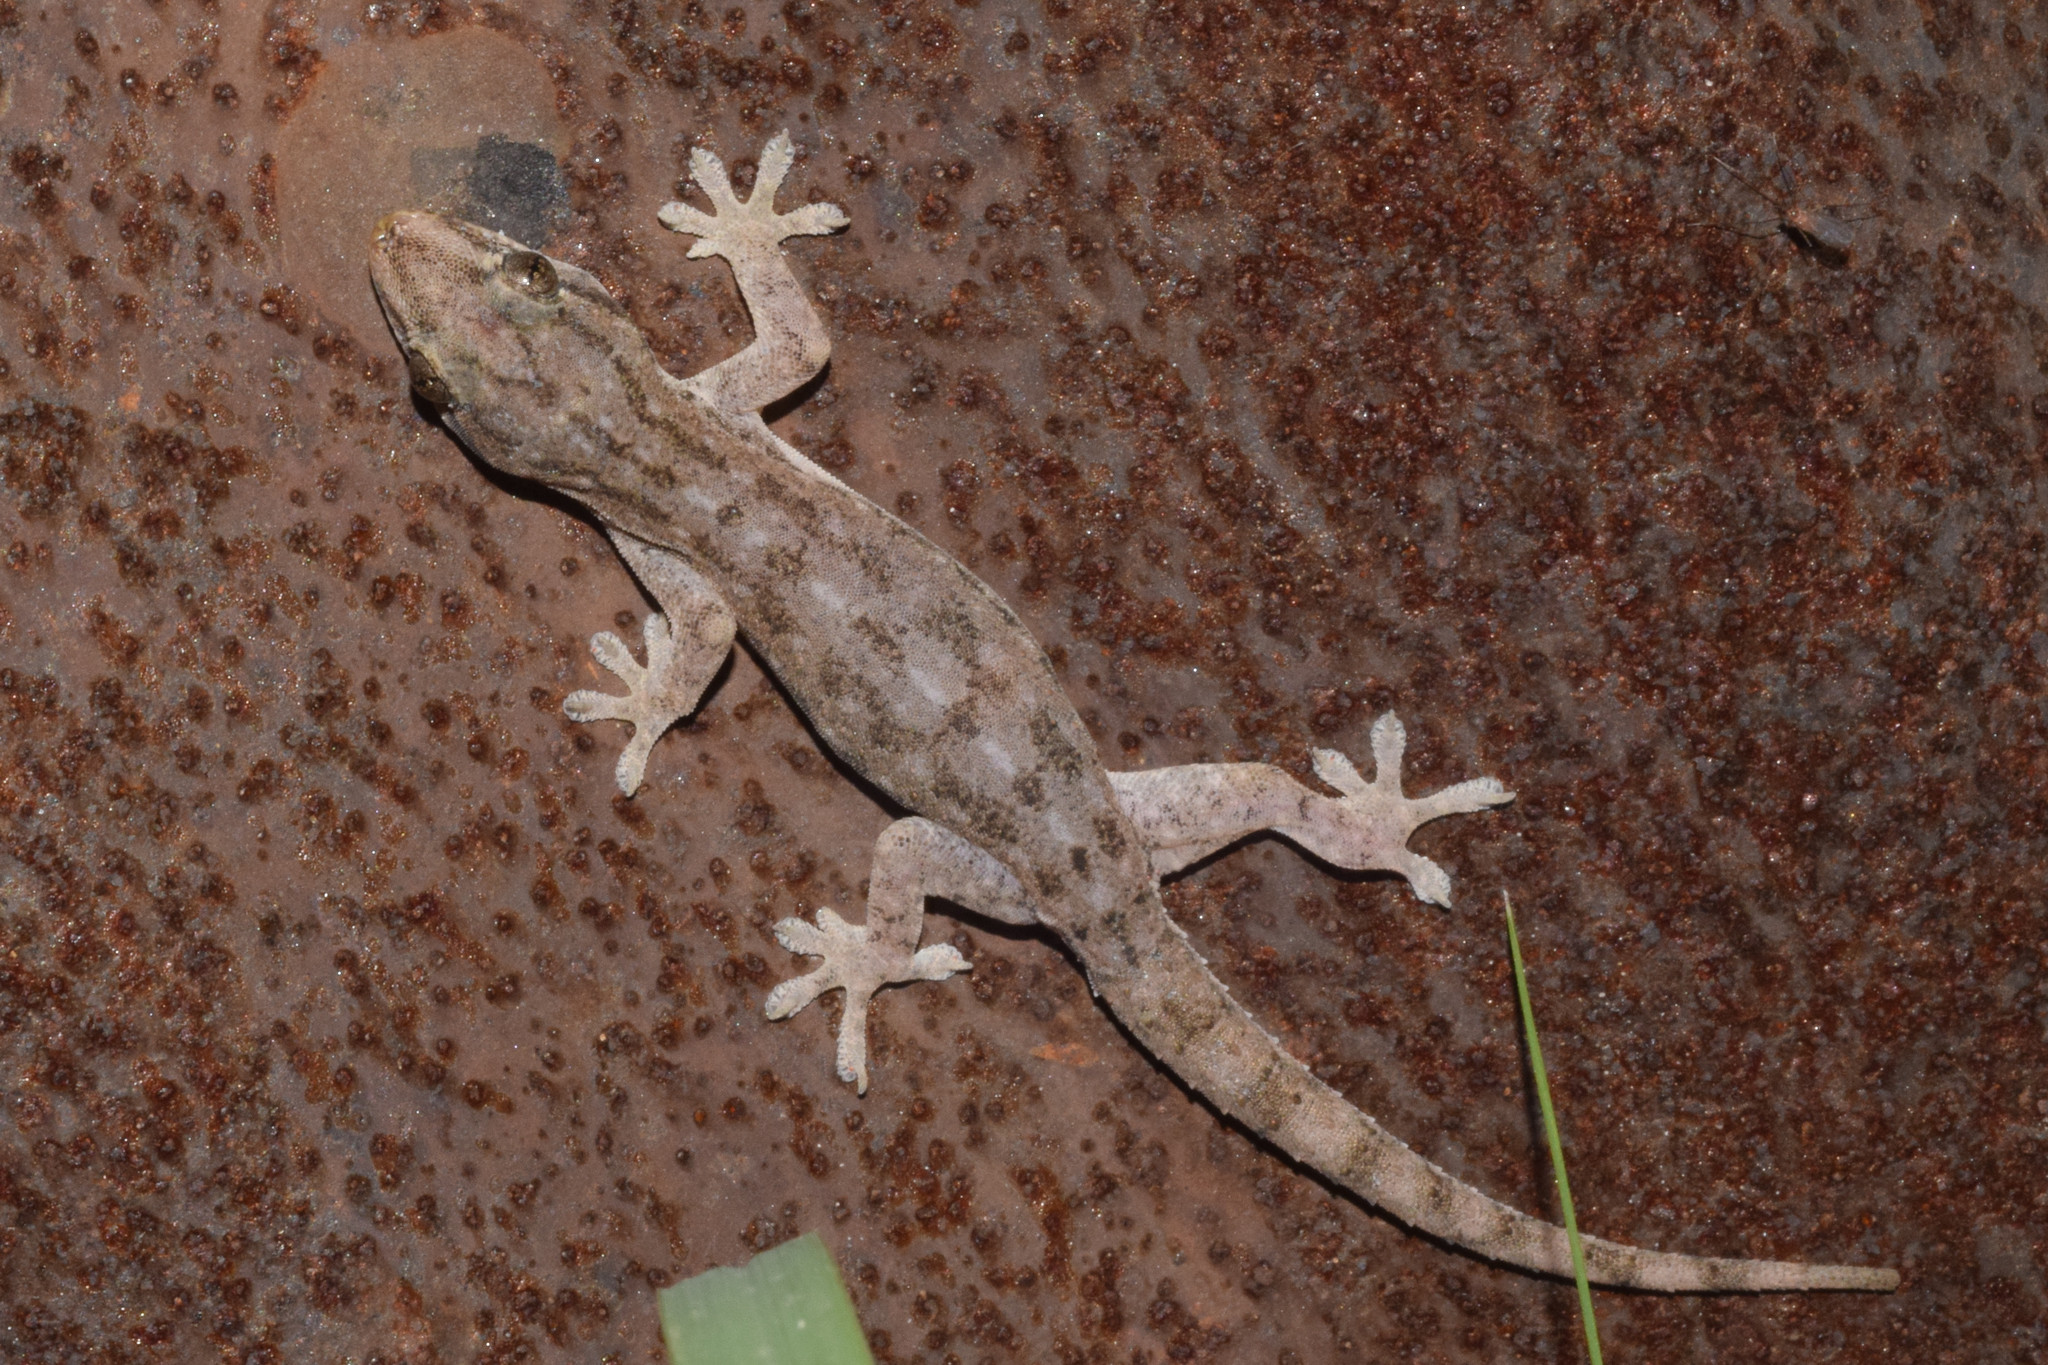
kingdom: Animalia
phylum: Chordata
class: Squamata
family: Gekkonidae
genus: Hemidactylus
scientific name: Hemidactylus frenatus
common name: Common house gecko
